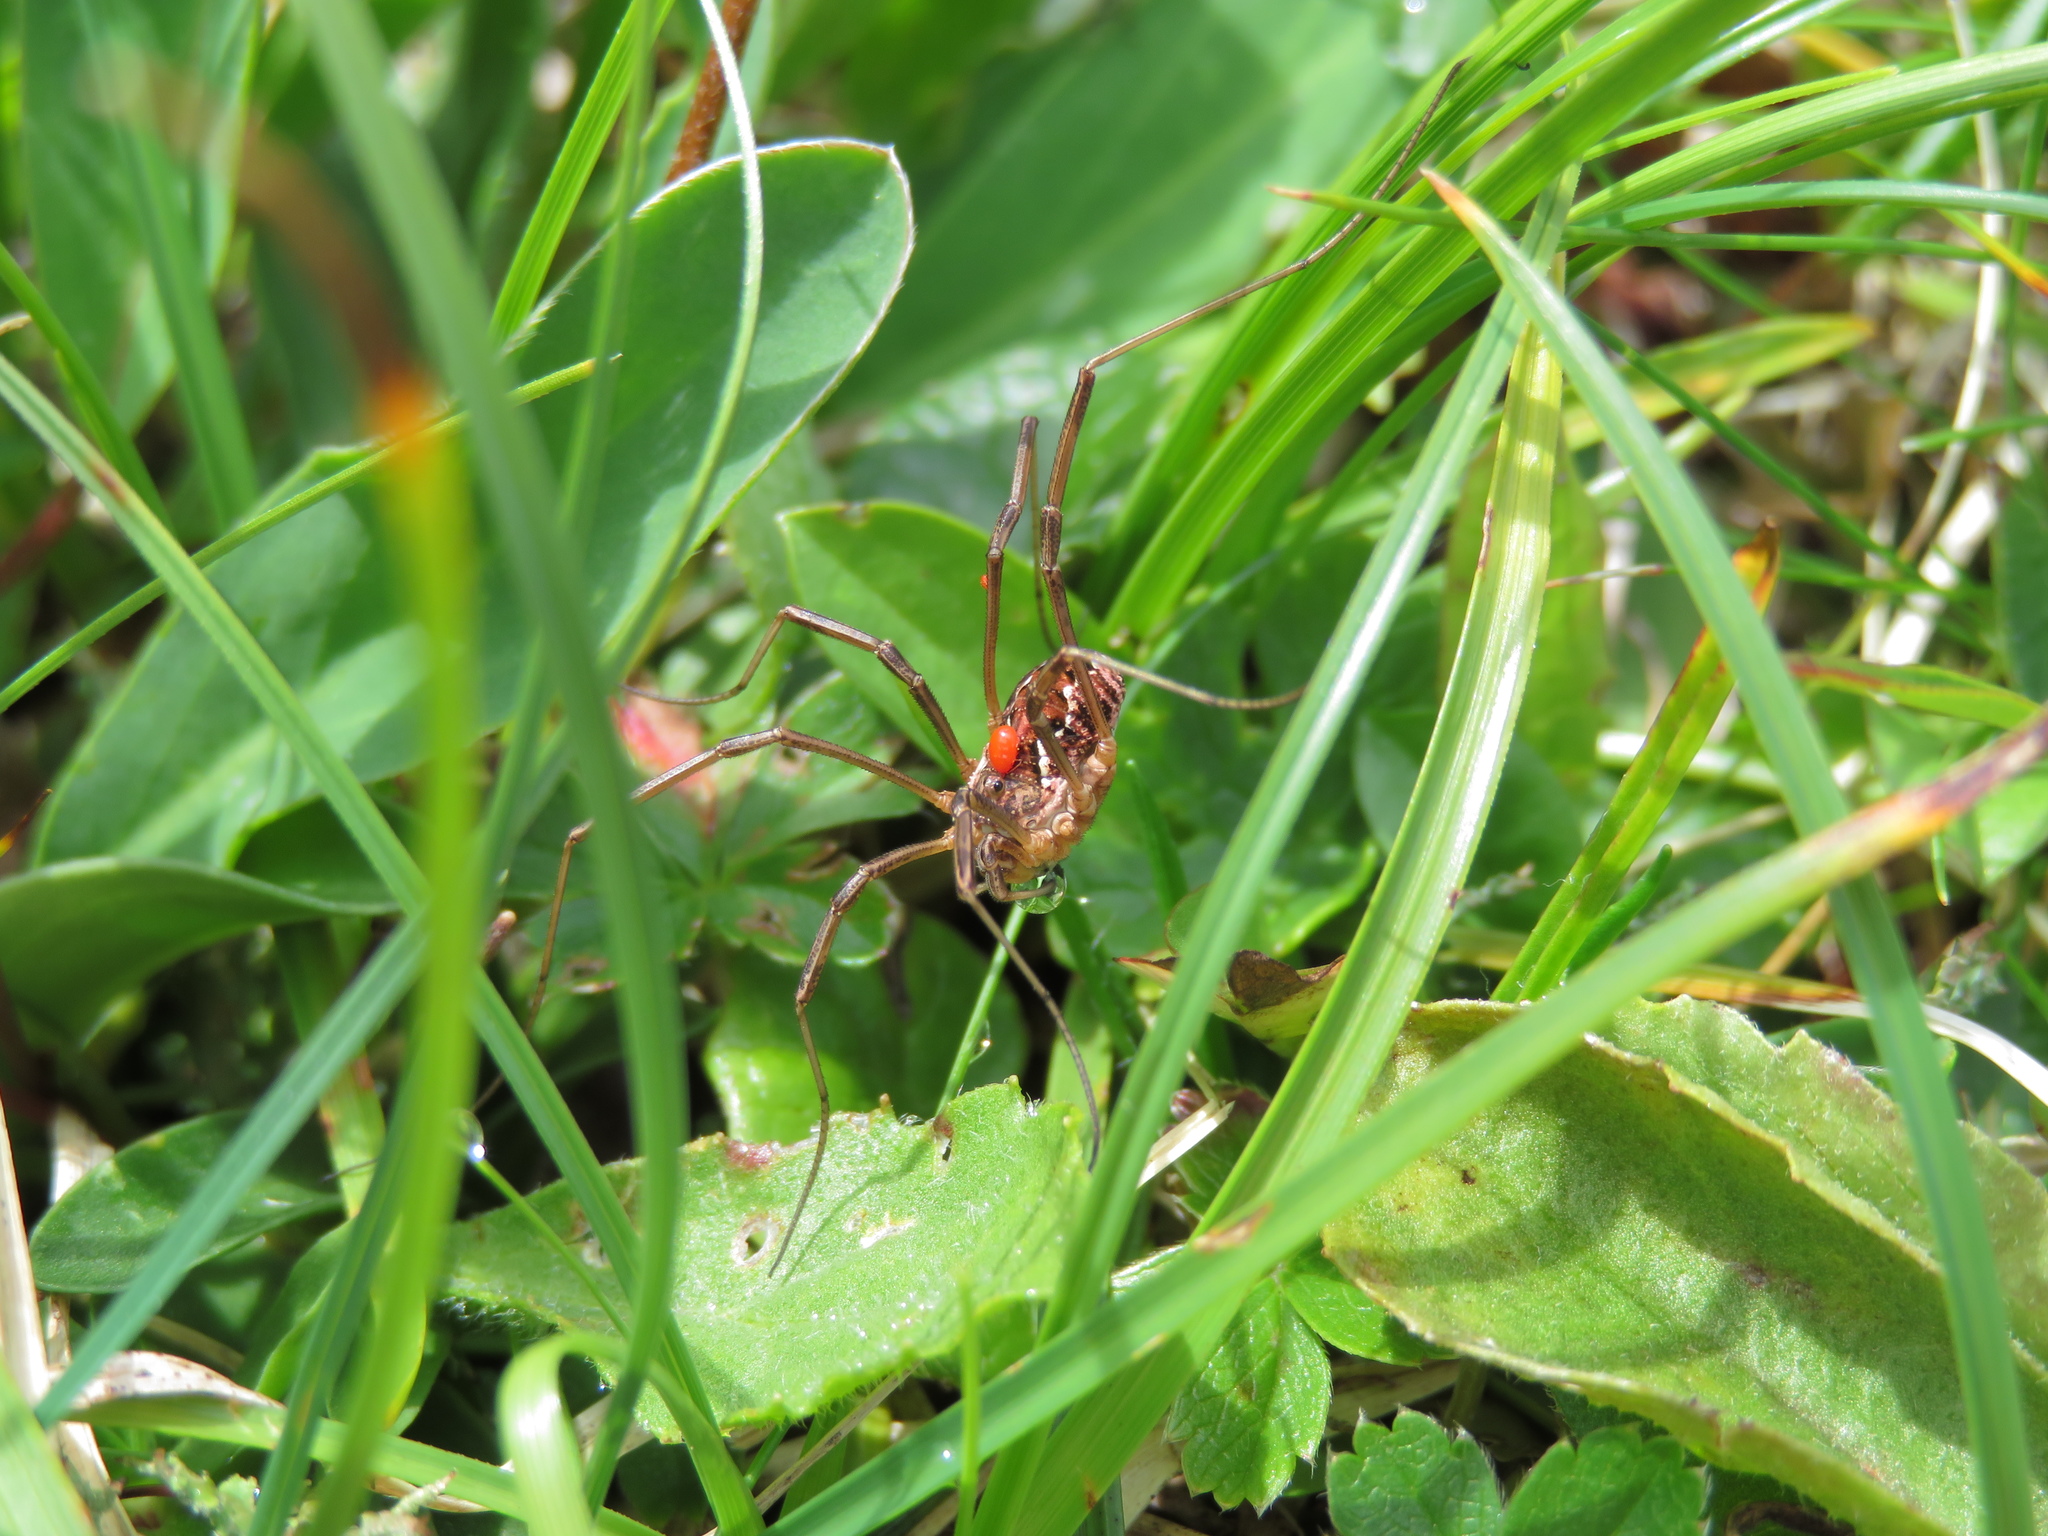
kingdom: Animalia
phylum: Arthropoda
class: Arachnida
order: Opiliones
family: Phalangiidae
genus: Mitopus
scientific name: Mitopus morio
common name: Saddleback harvestman
